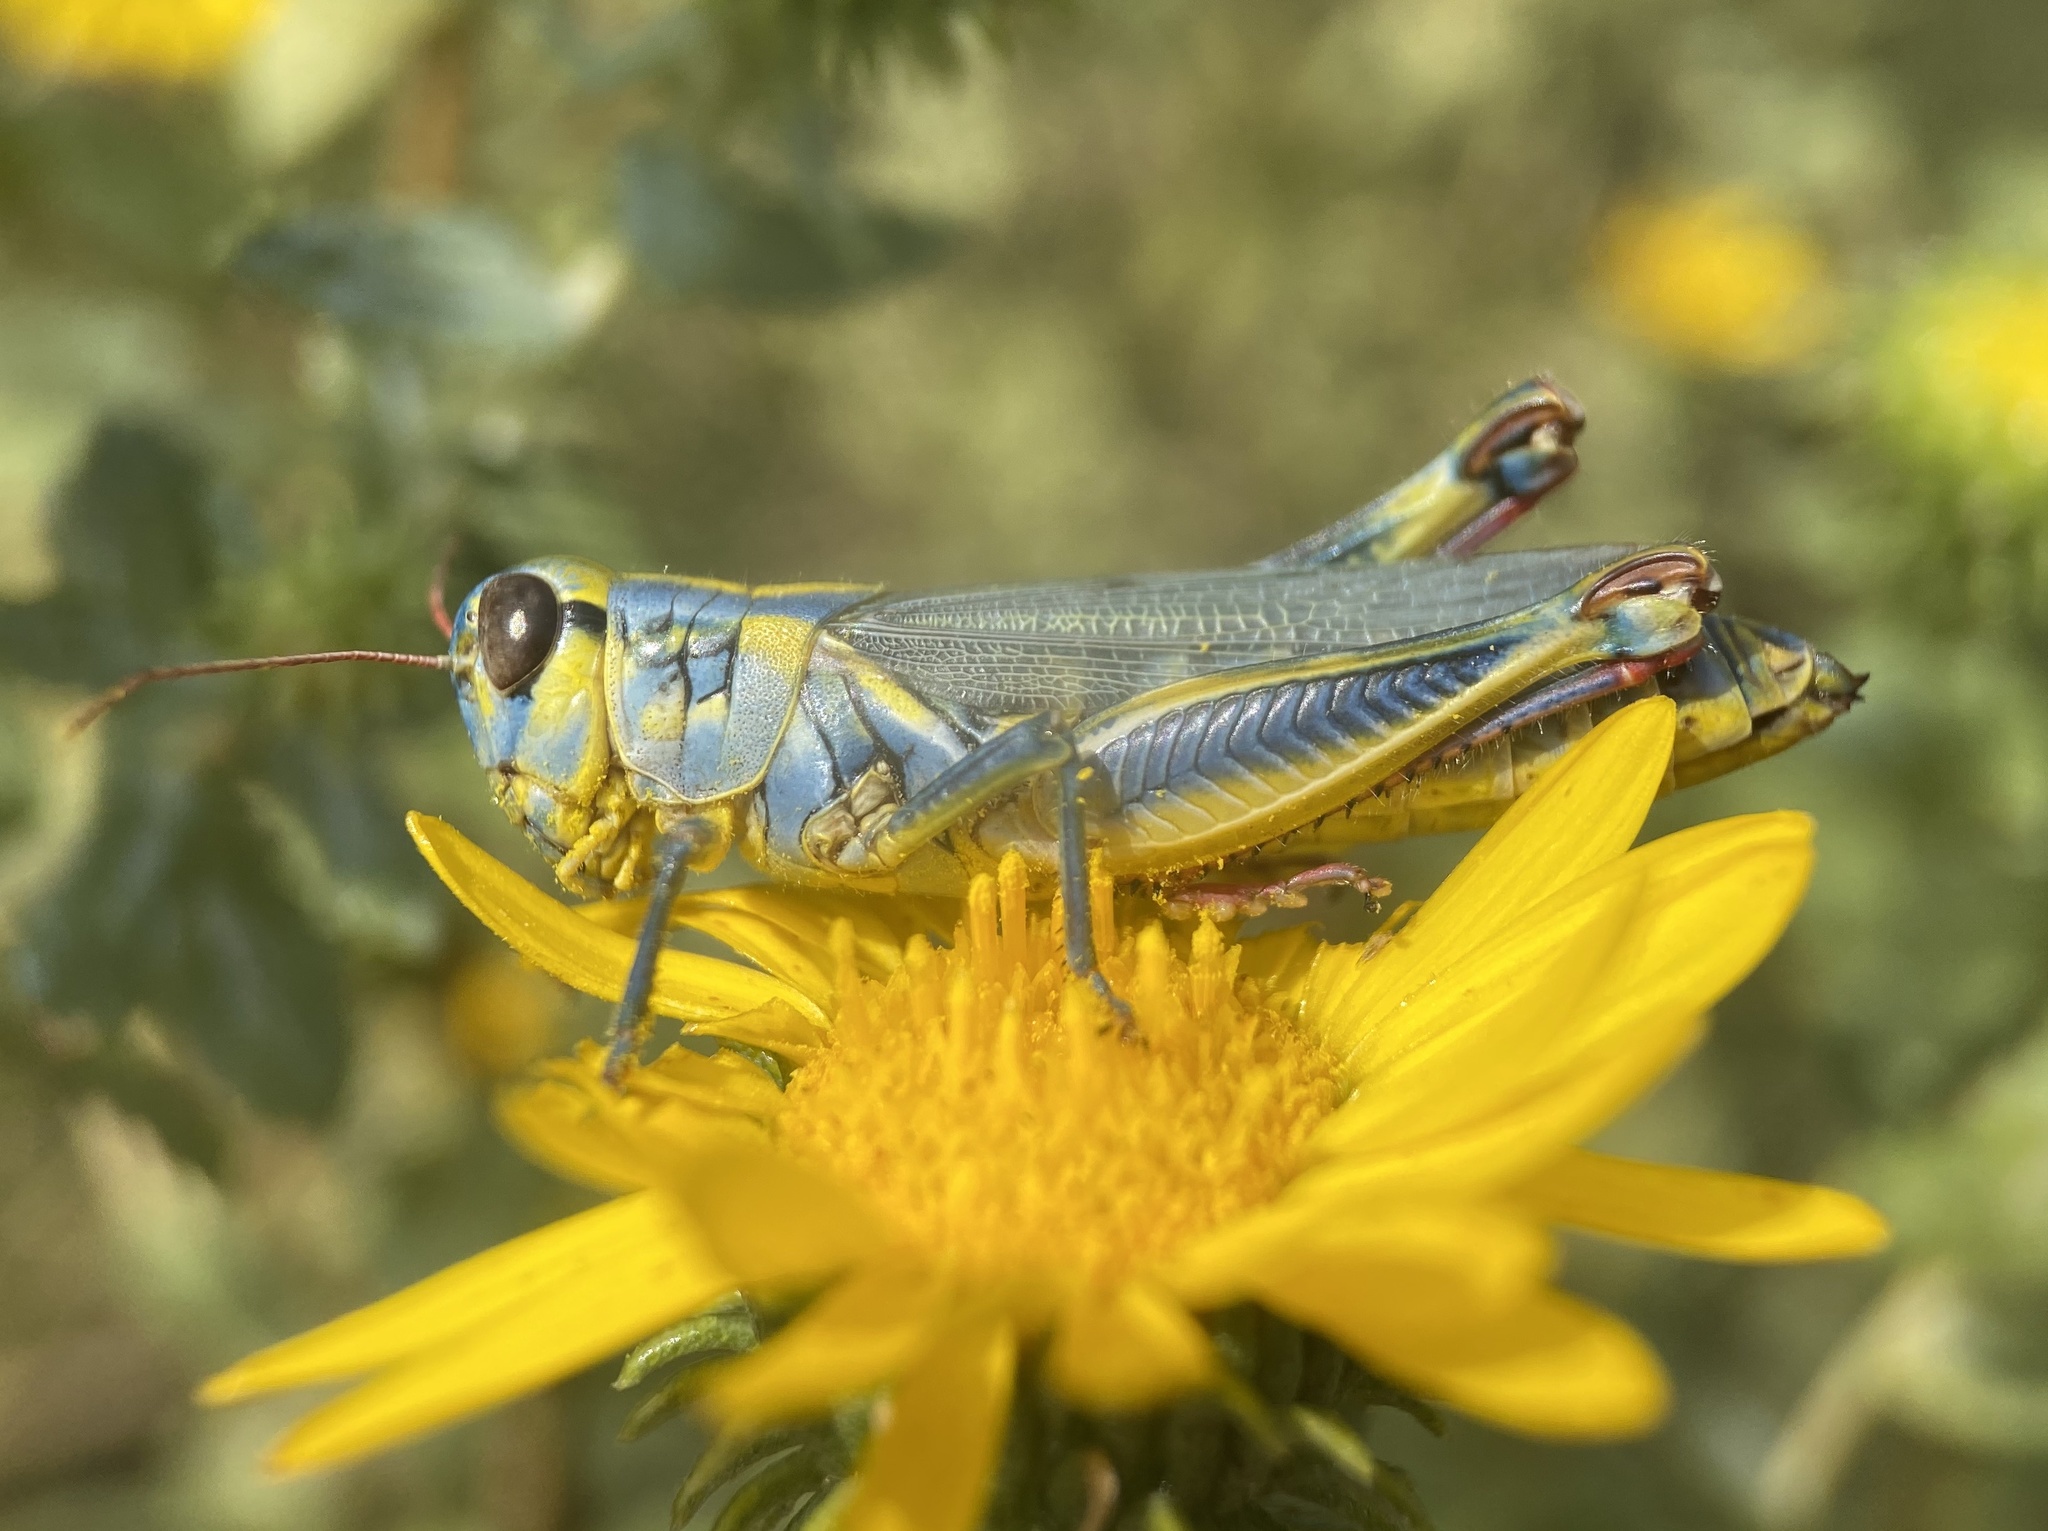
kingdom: Animalia
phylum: Arthropoda
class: Insecta
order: Orthoptera
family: Acrididae
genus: Melanoplus
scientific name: Melanoplus femurrubrum
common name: Red-legged grasshopper
